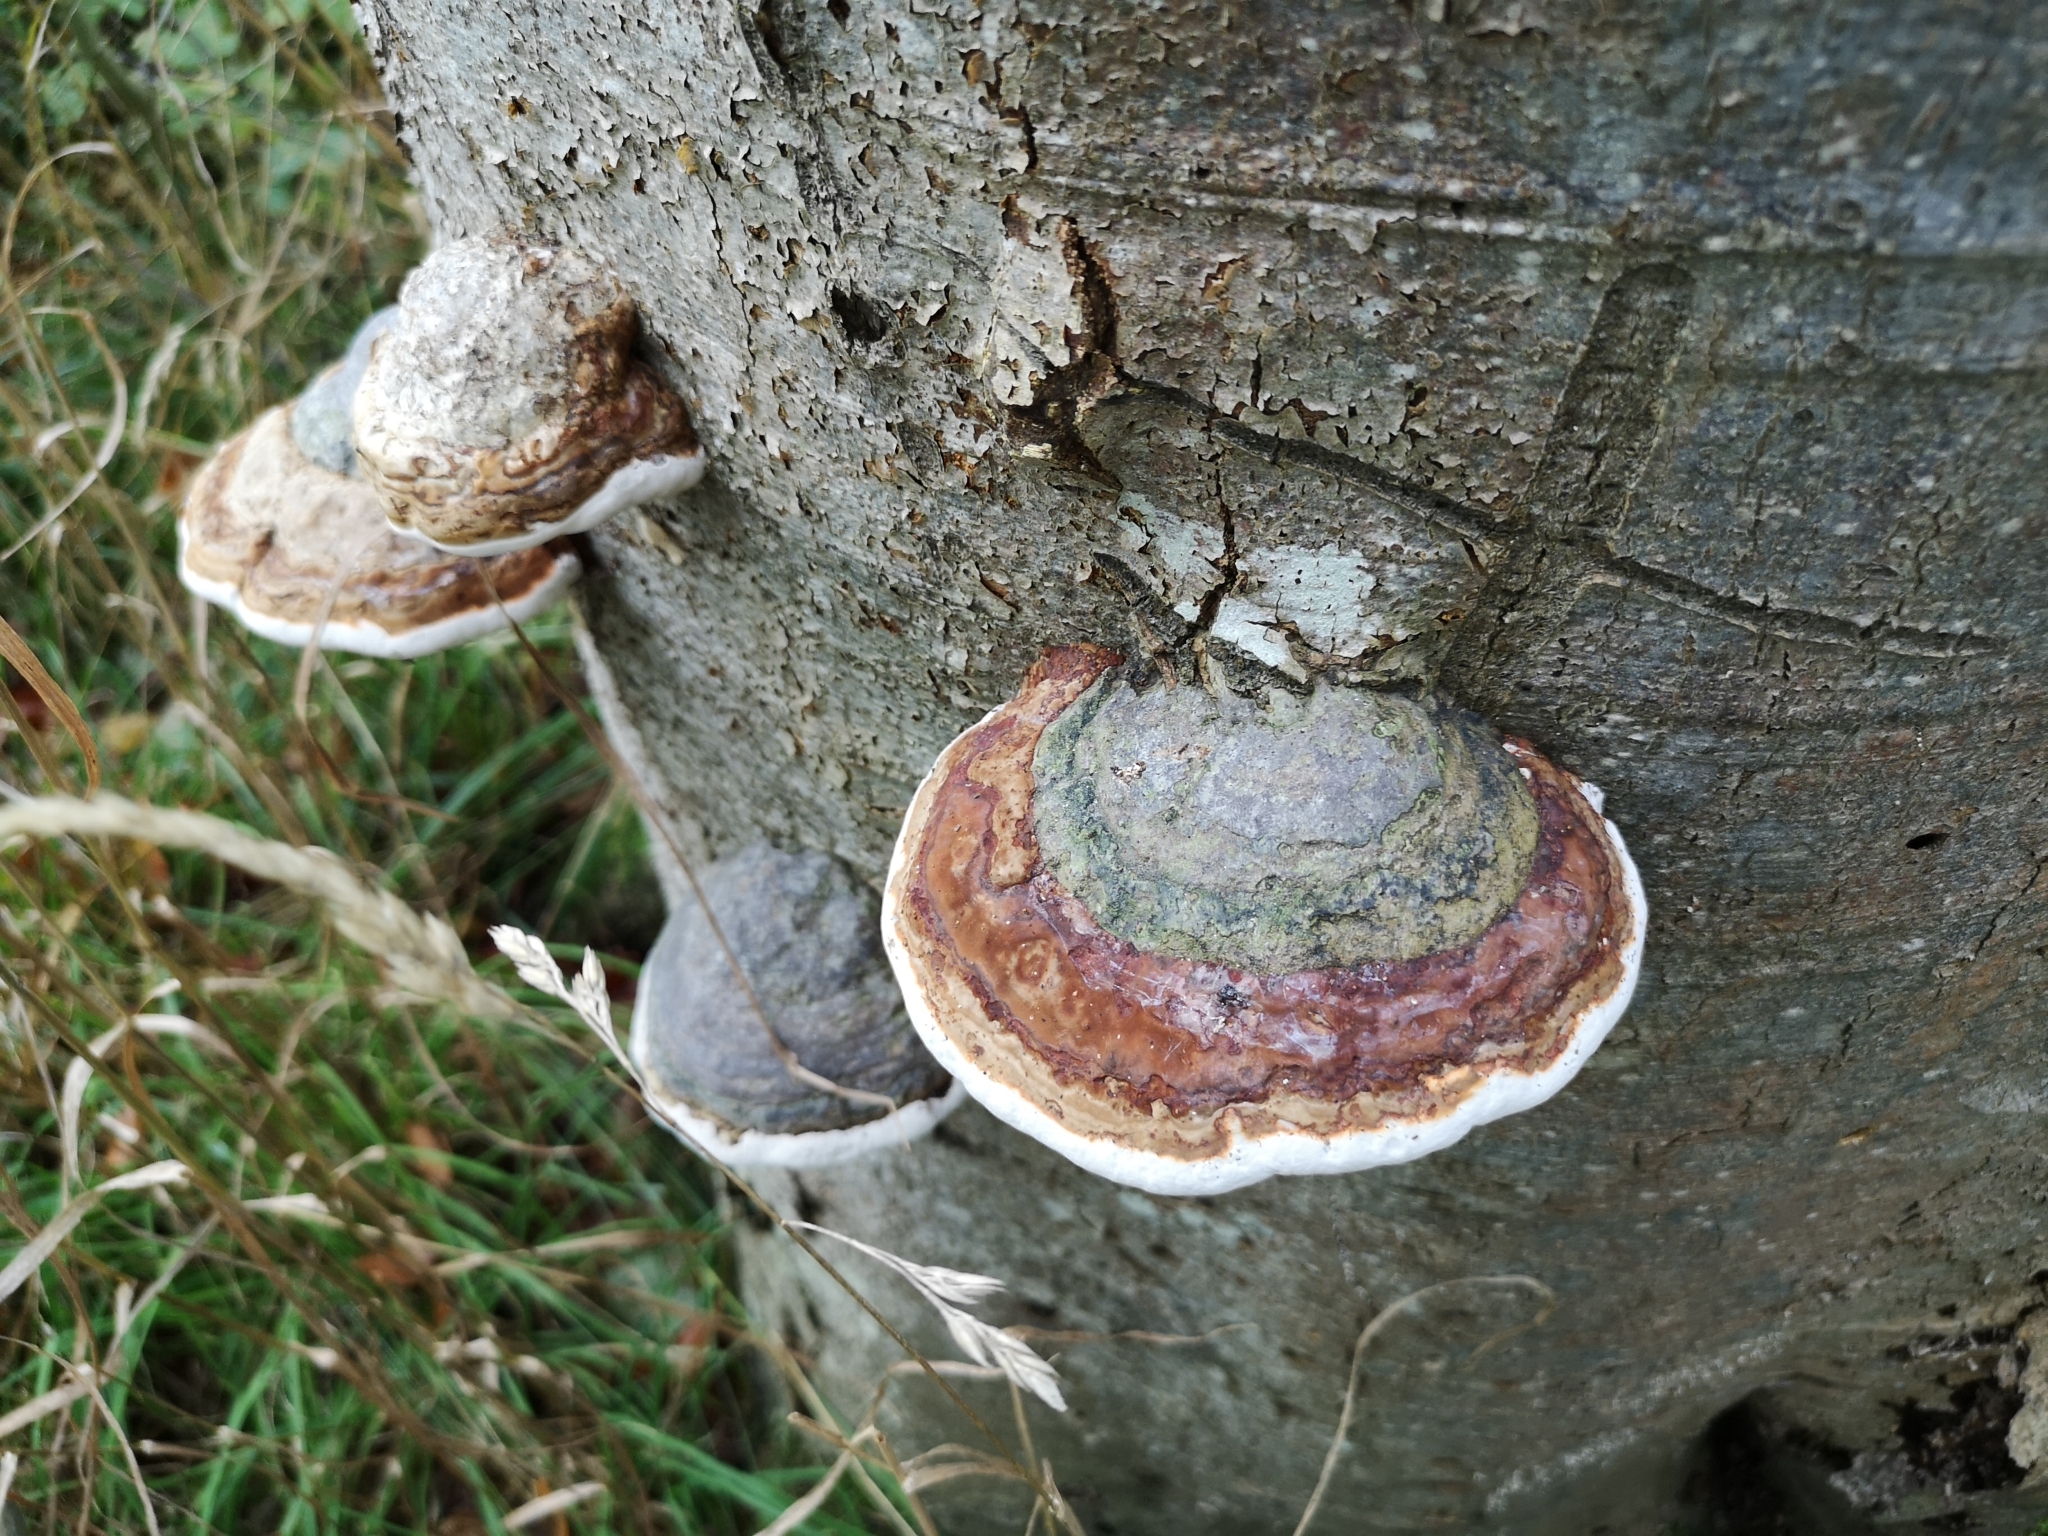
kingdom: Fungi
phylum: Basidiomycota
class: Agaricomycetes
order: Polyporales
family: Fomitopsidaceae
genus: Fomitopsis
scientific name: Fomitopsis pinicola
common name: Red-belted bracket
